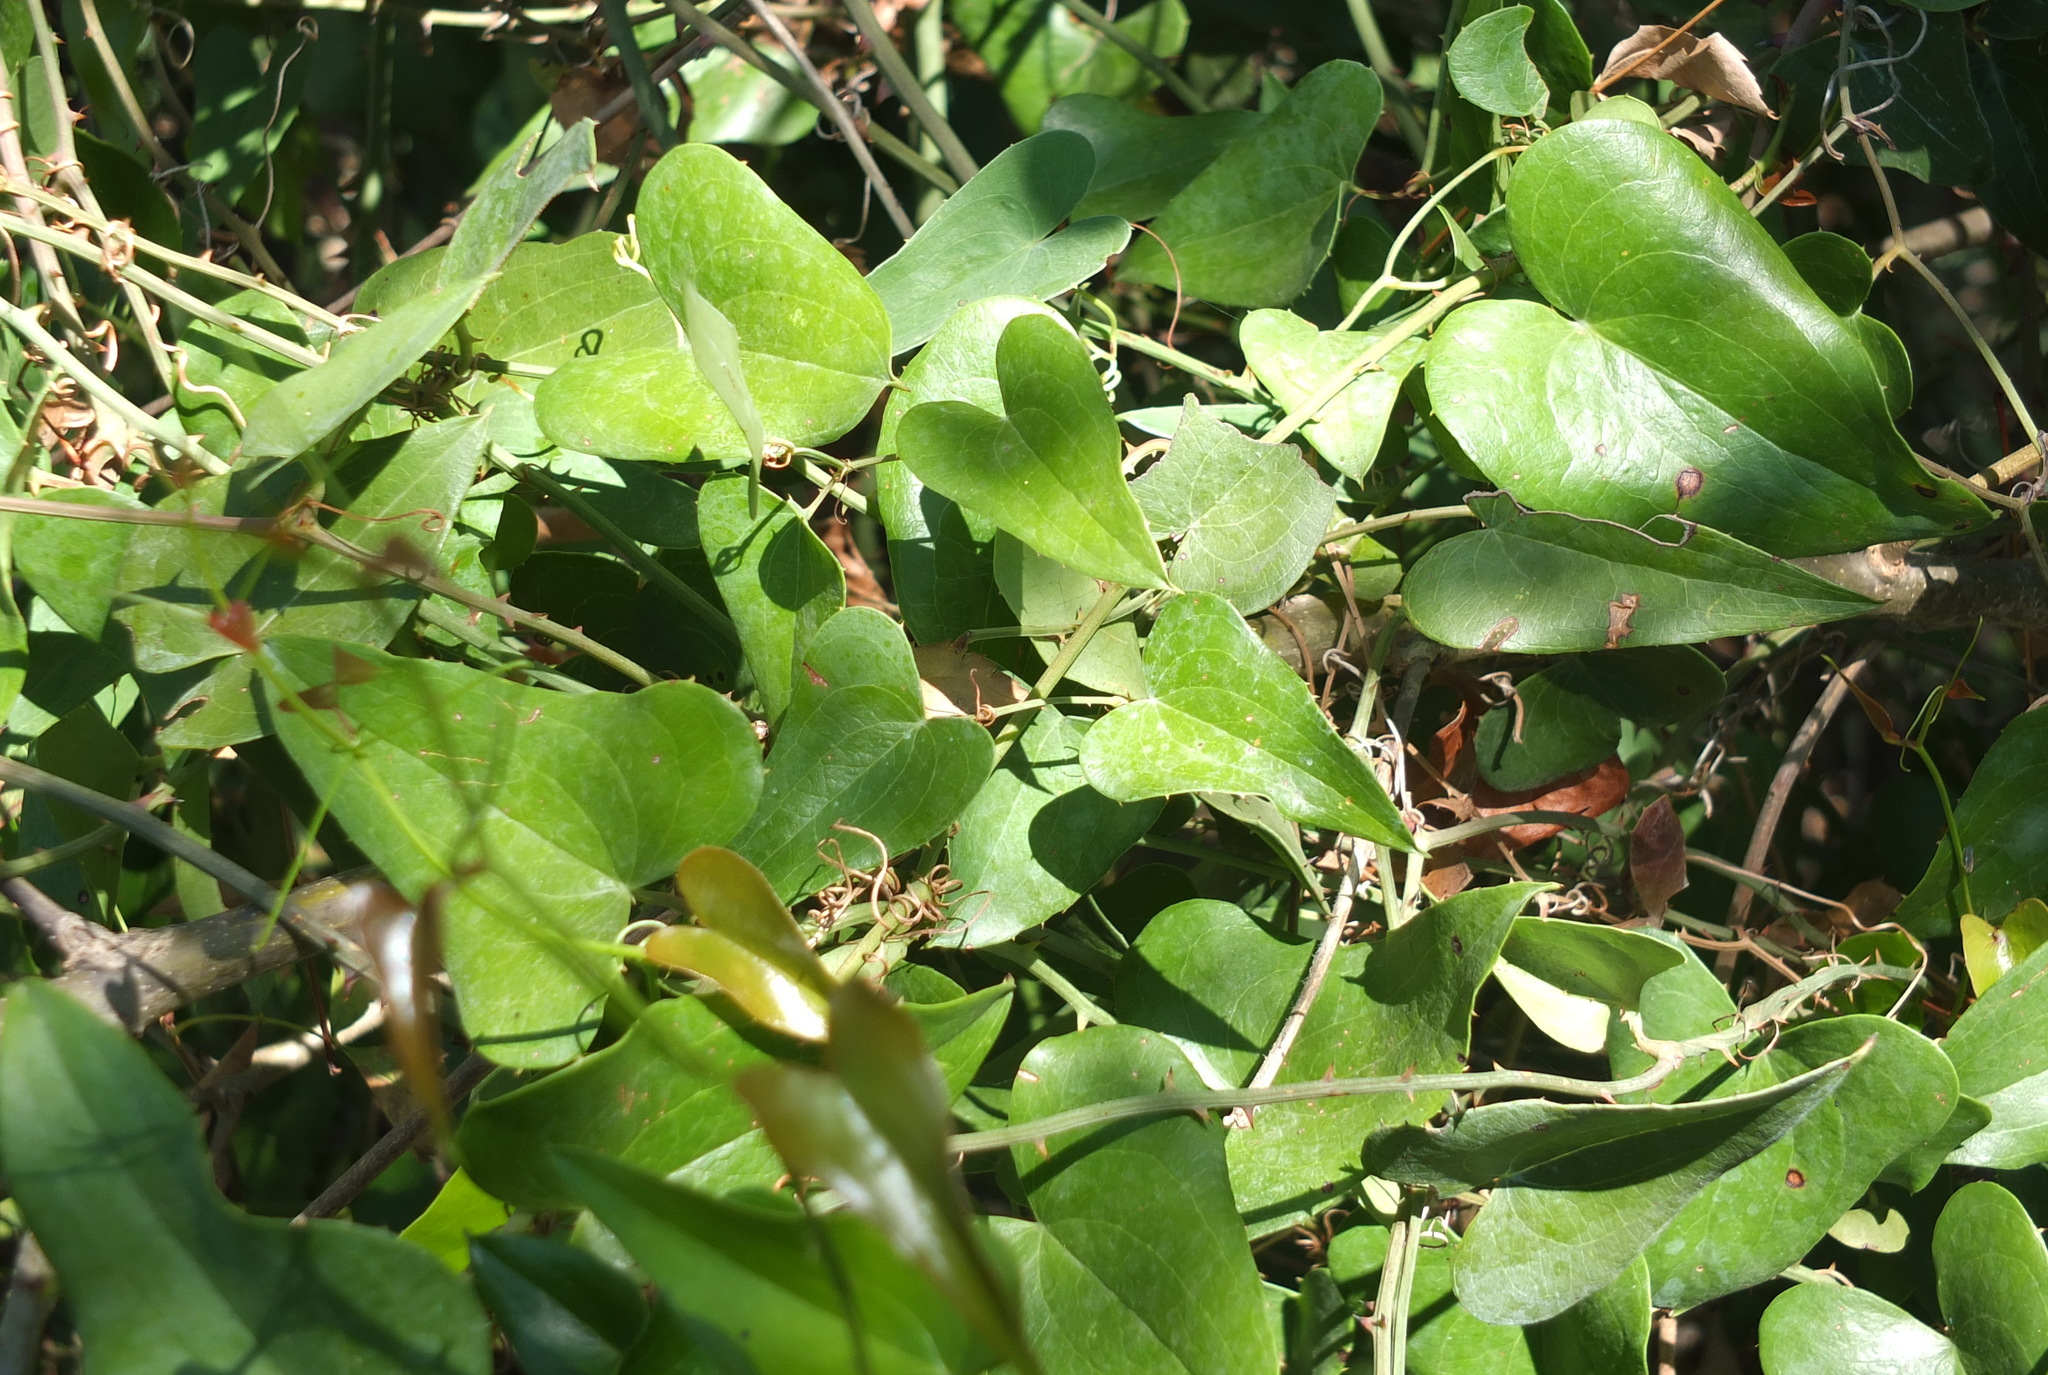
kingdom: Plantae
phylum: Tracheophyta
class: Liliopsida
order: Liliales
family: Smilacaceae
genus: Smilax
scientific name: Smilax aspera
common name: Common smilax
